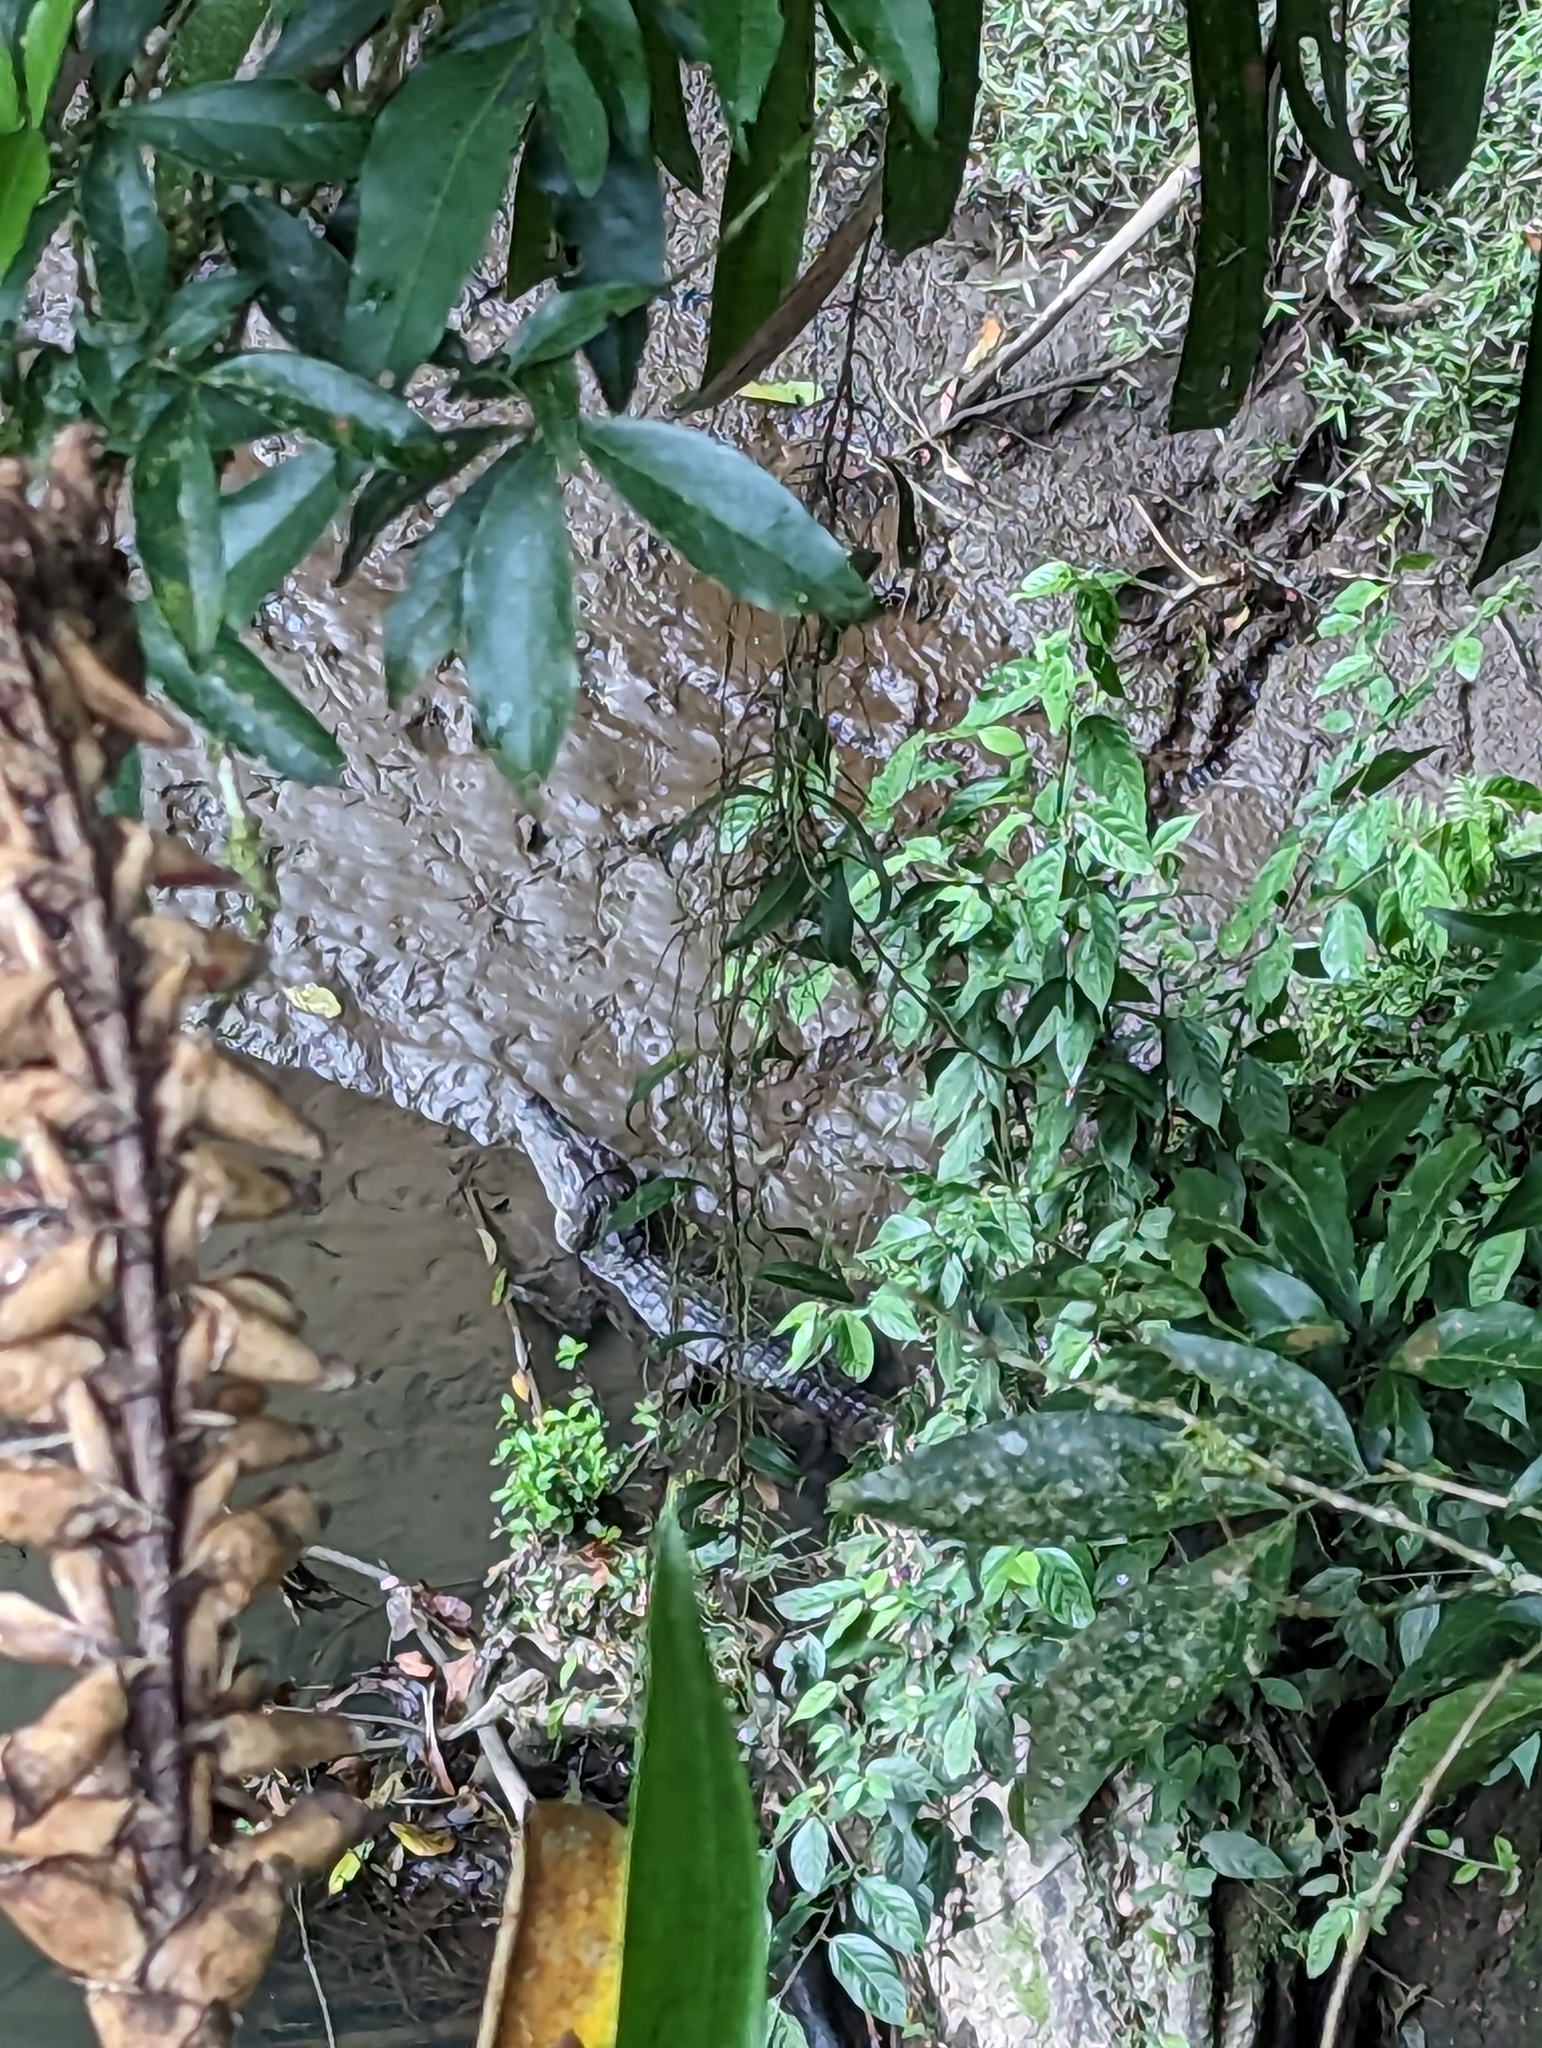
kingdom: Animalia
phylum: Chordata
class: Crocodylia
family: Alligatoridae
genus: Caiman
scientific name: Caiman crocodilus
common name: Common caiman
